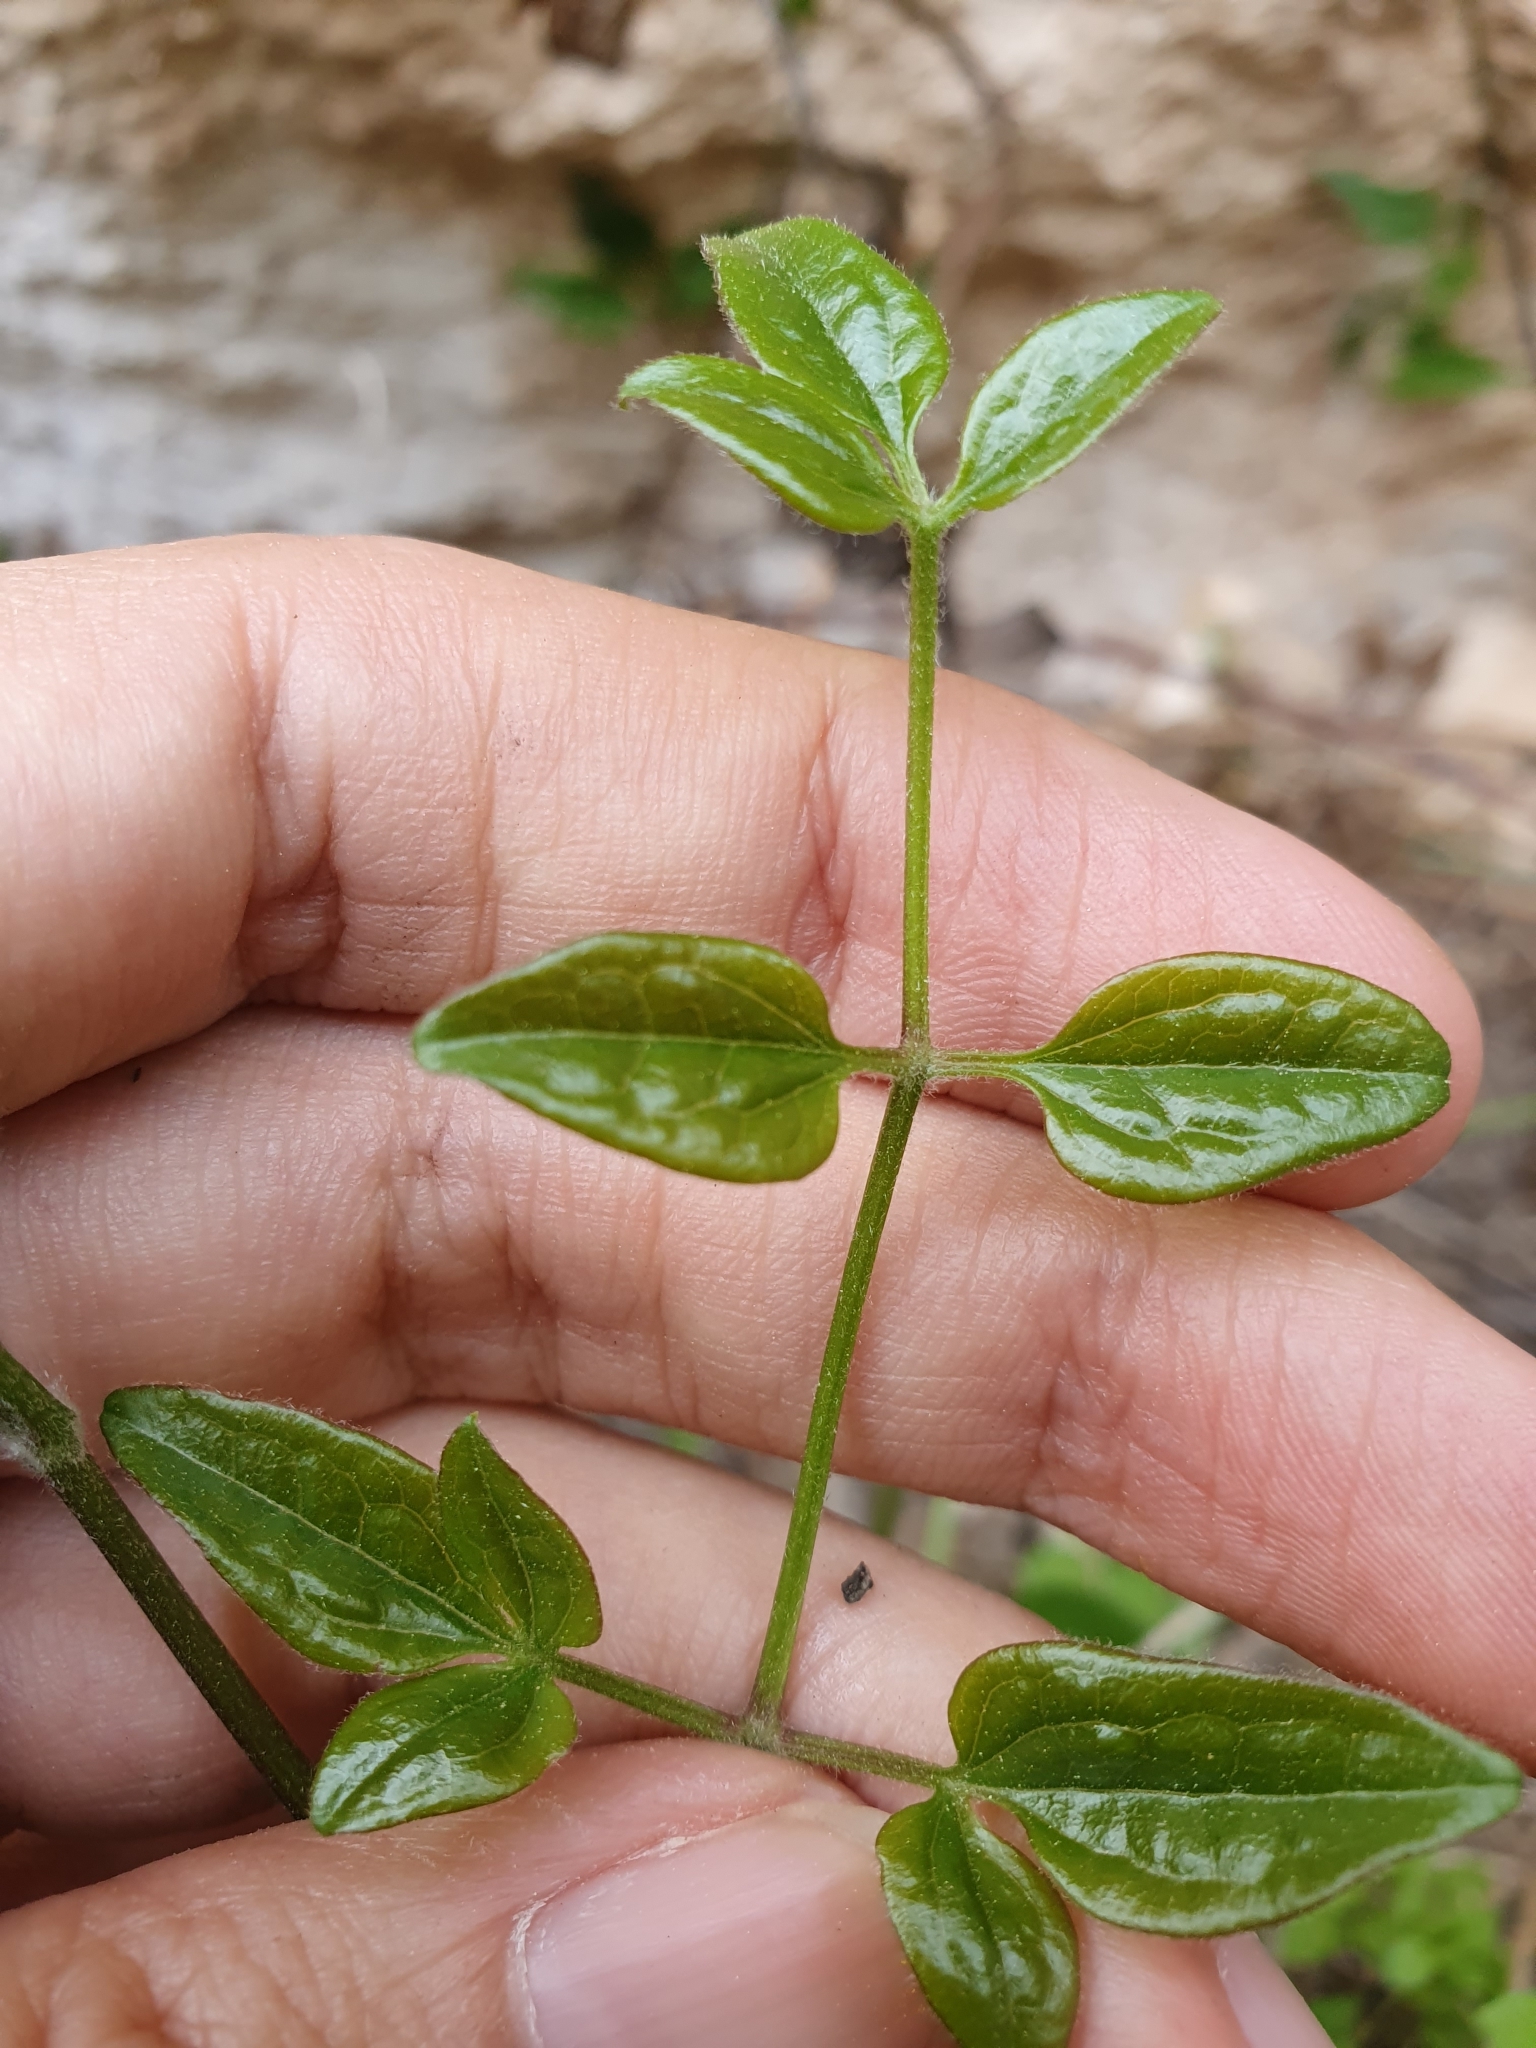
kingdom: Plantae
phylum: Tracheophyta
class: Magnoliopsida
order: Ranunculales
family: Ranunculaceae
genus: Clematis
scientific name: Clematis flammula
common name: Virgin's-bower
